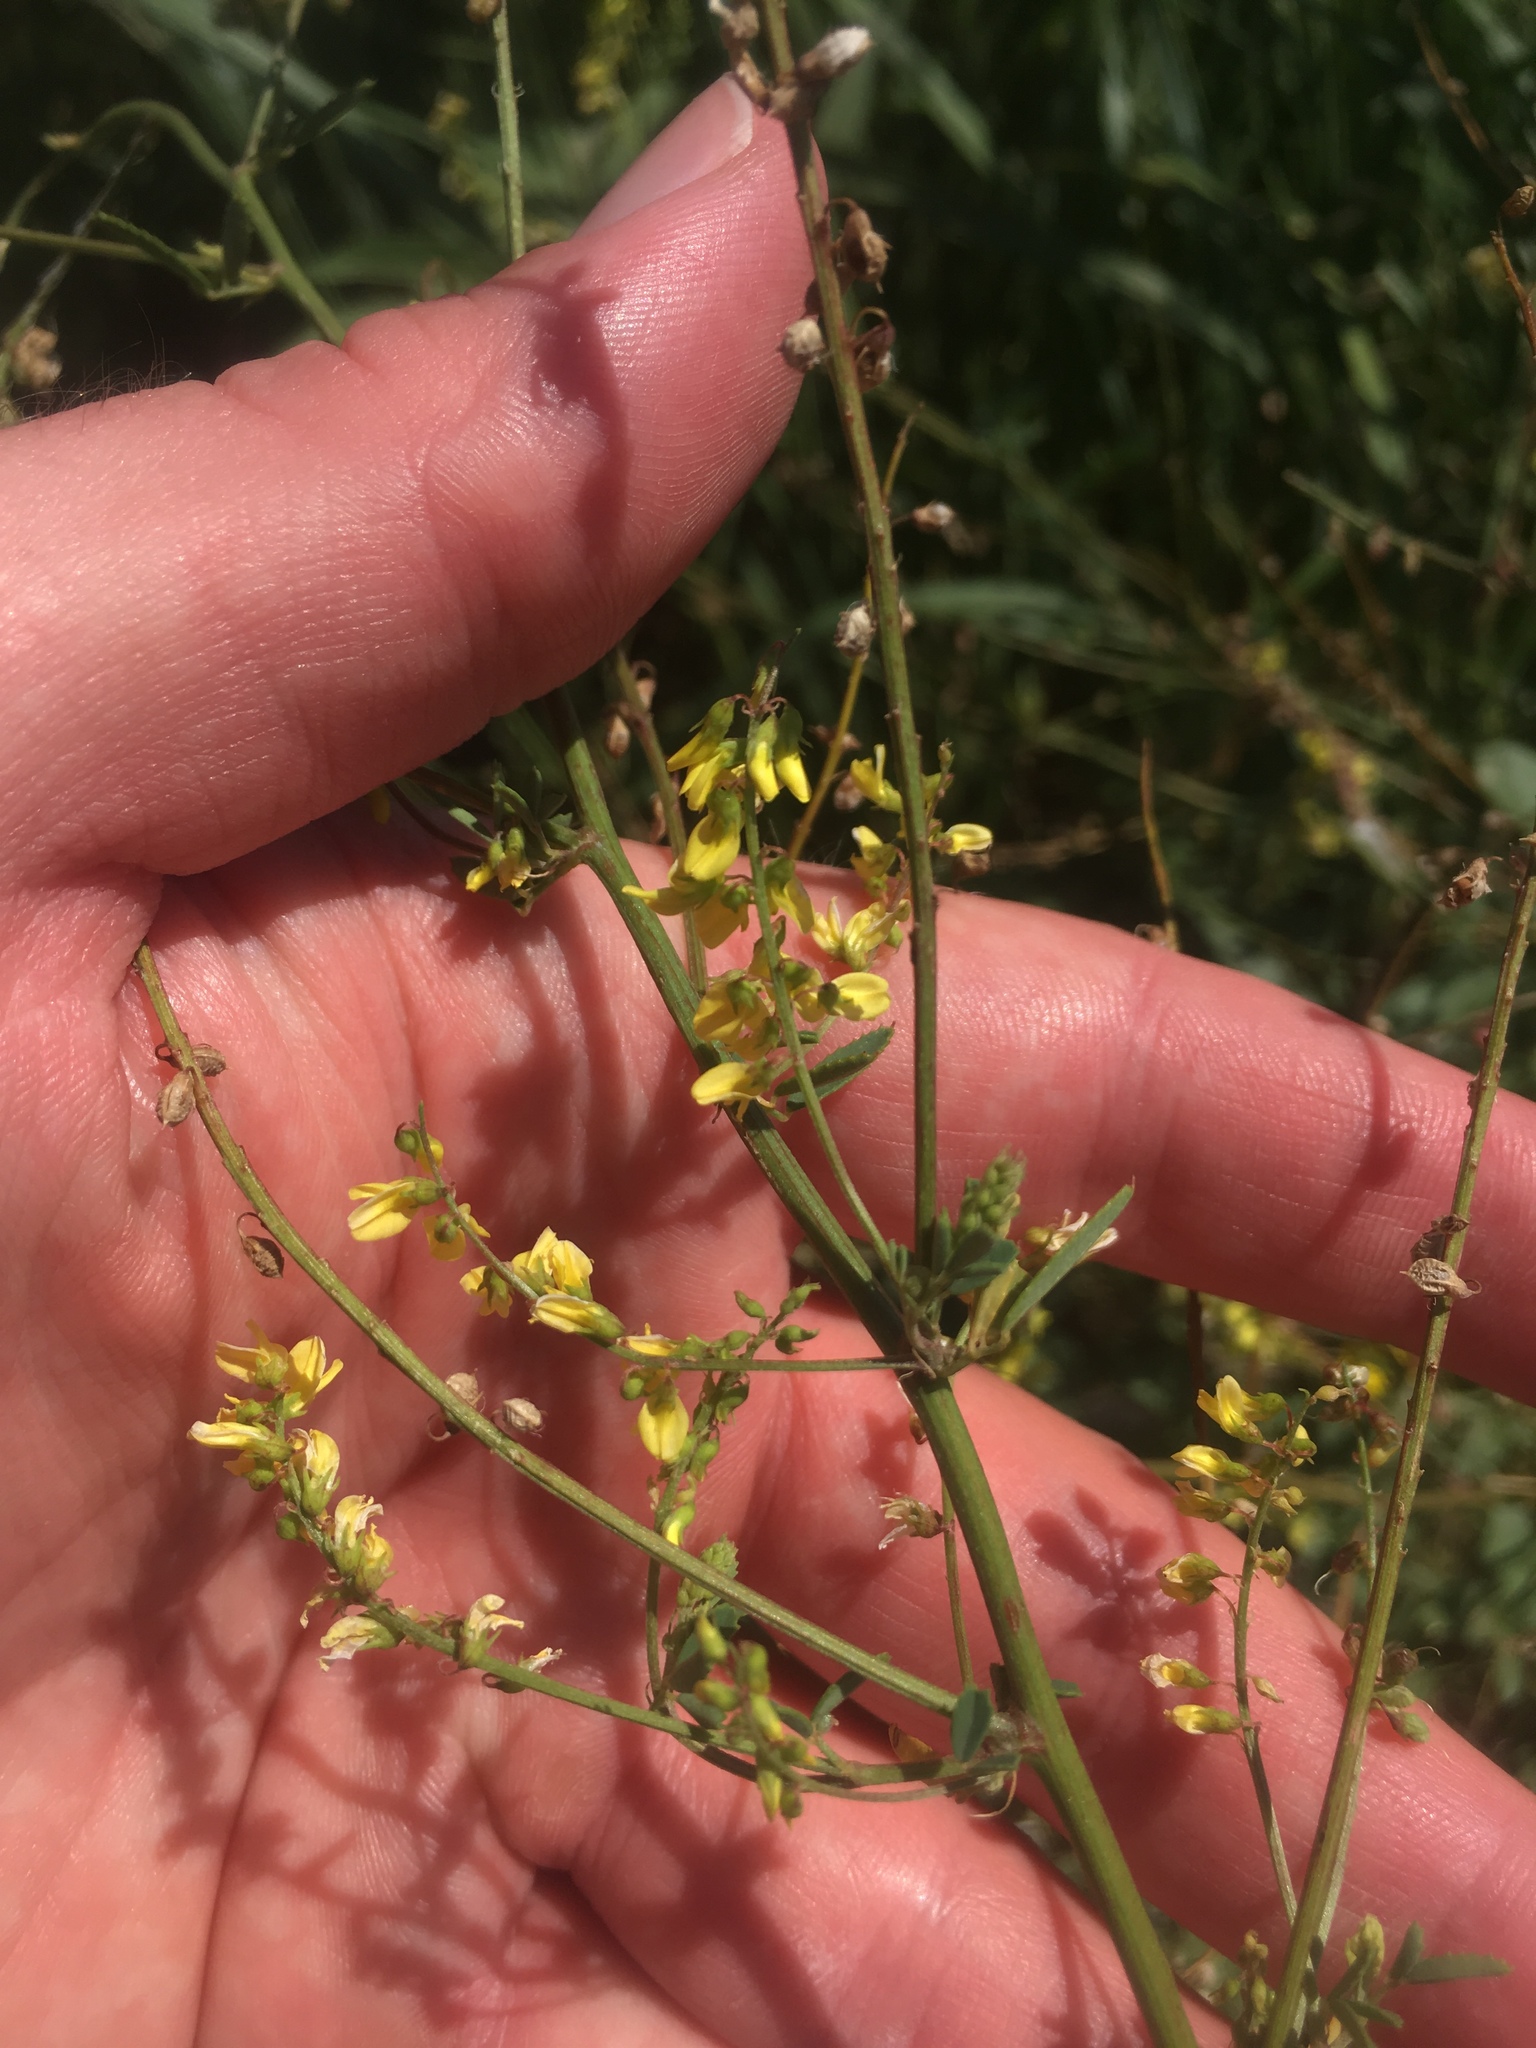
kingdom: Plantae
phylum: Tracheophyta
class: Magnoliopsida
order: Fabales
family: Fabaceae
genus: Melilotus
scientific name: Melilotus officinalis
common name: Sweetclover
